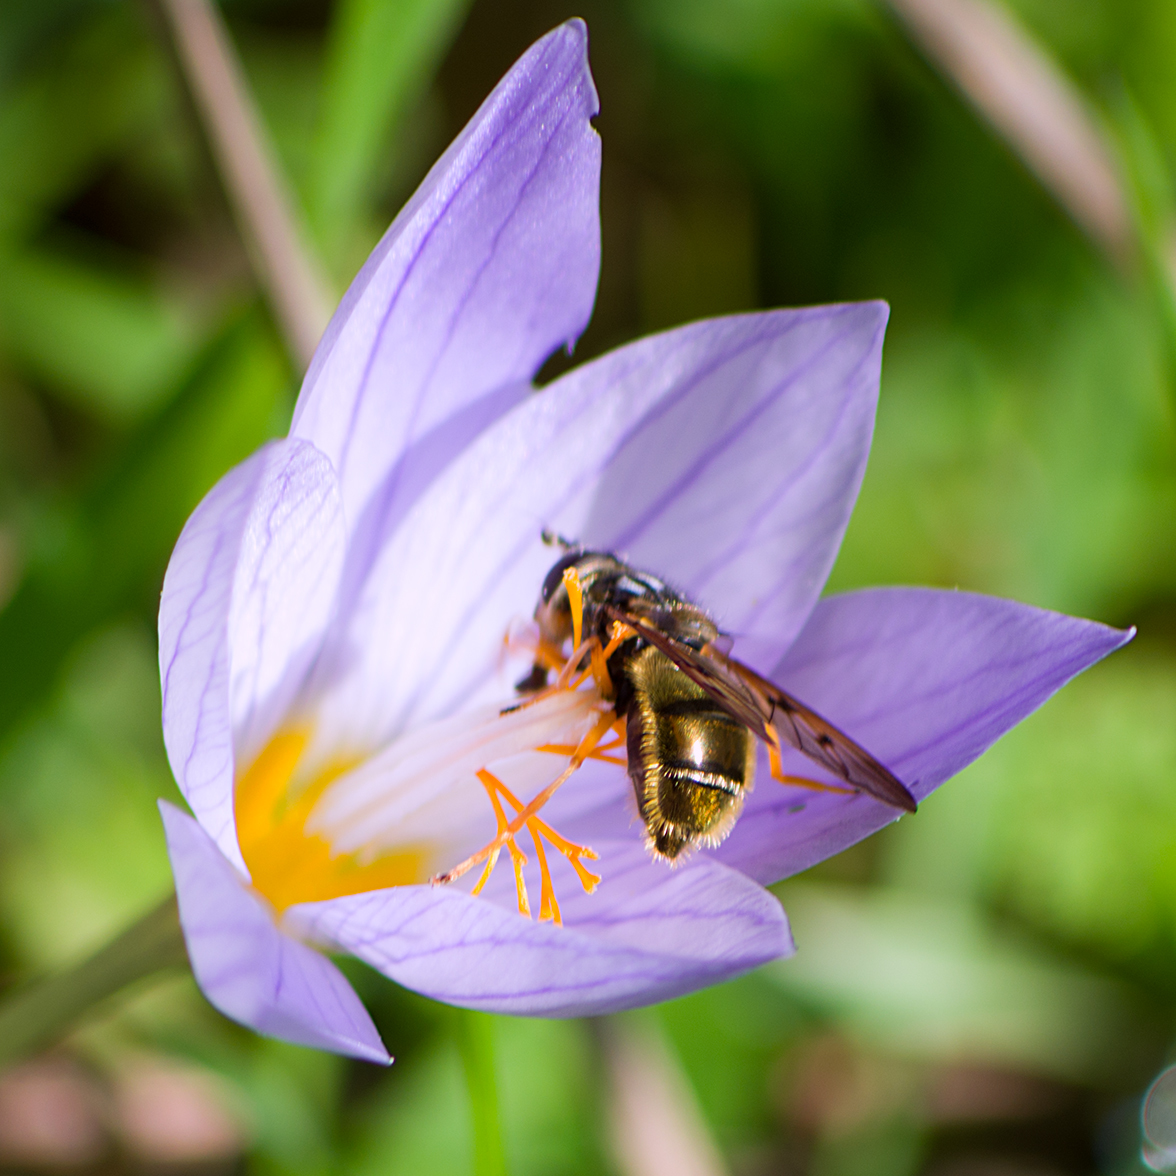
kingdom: Animalia
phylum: Arthropoda
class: Insecta
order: Diptera
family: Syrphidae
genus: Ferdinandea
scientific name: Ferdinandea aurea
